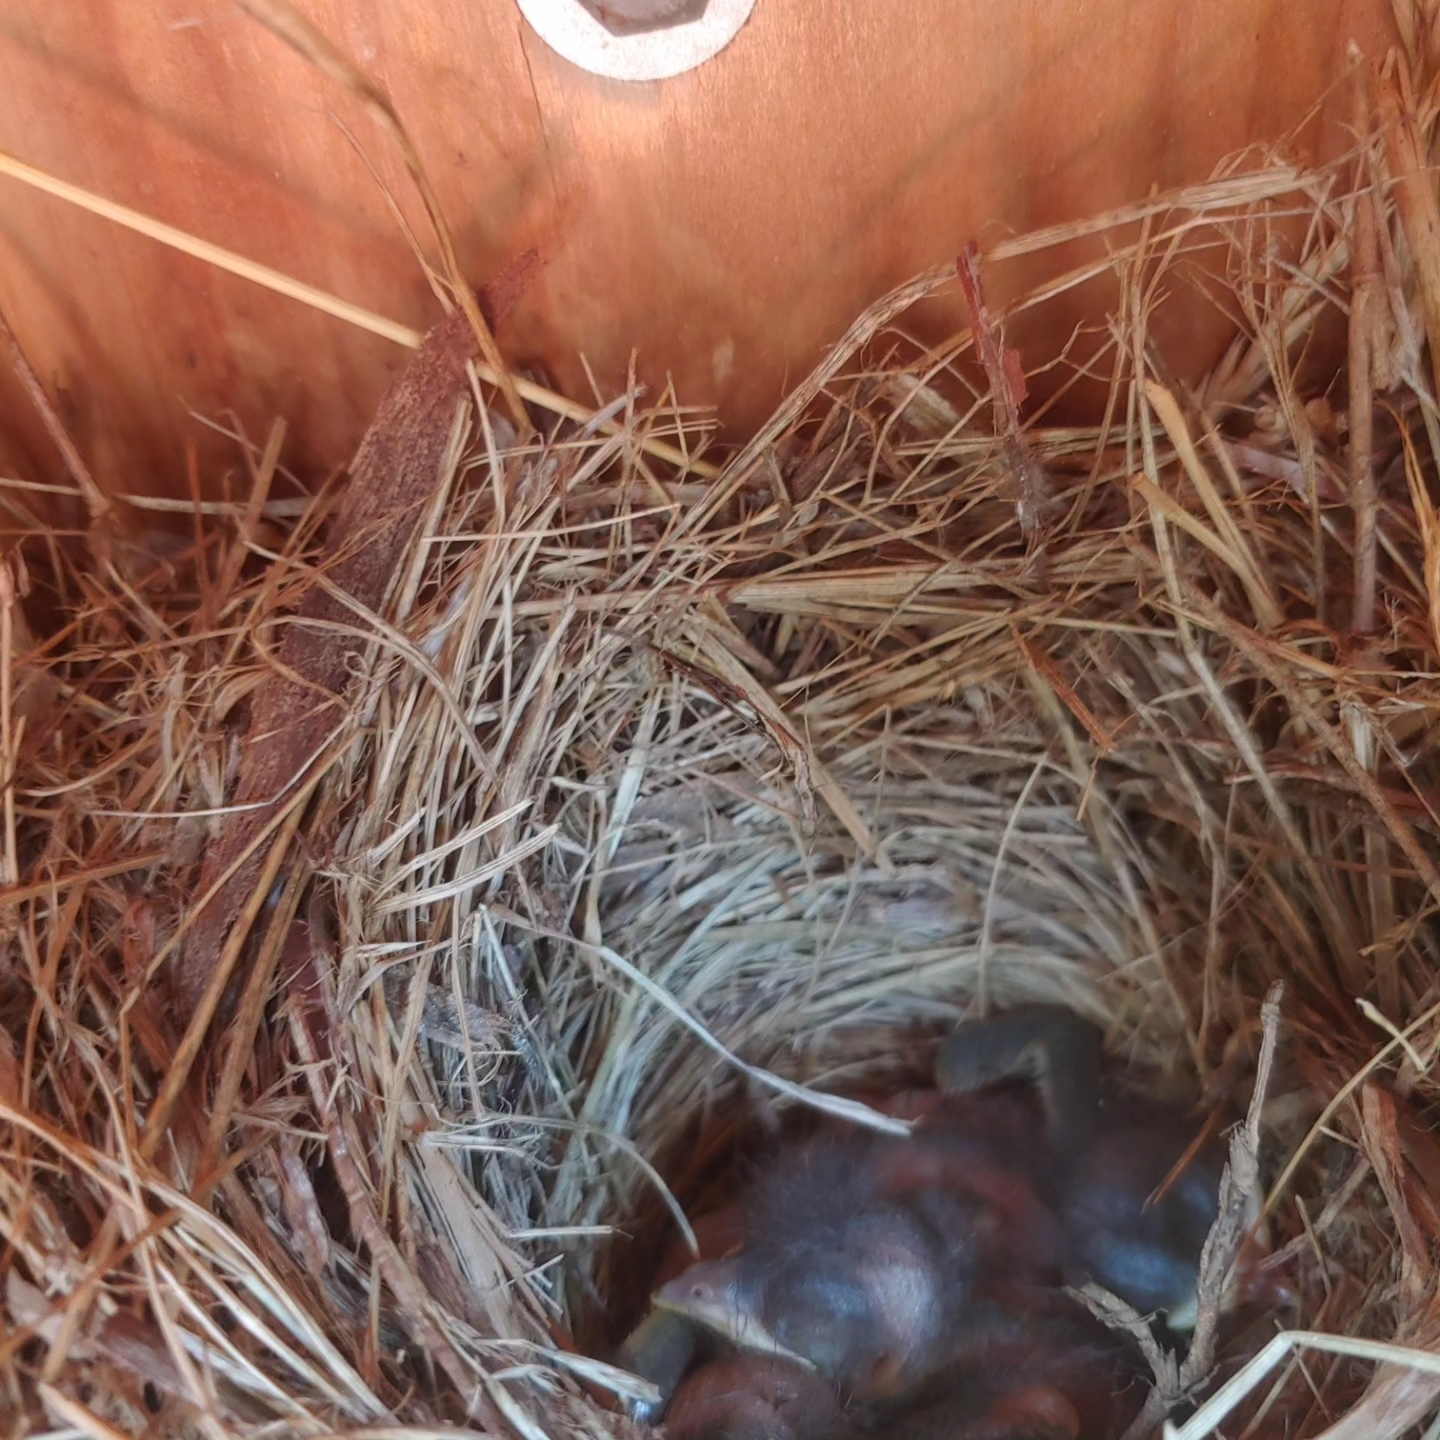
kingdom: Animalia
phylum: Chordata
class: Aves
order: Passeriformes
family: Turdidae
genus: Sialia
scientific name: Sialia sialis
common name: Eastern bluebird
